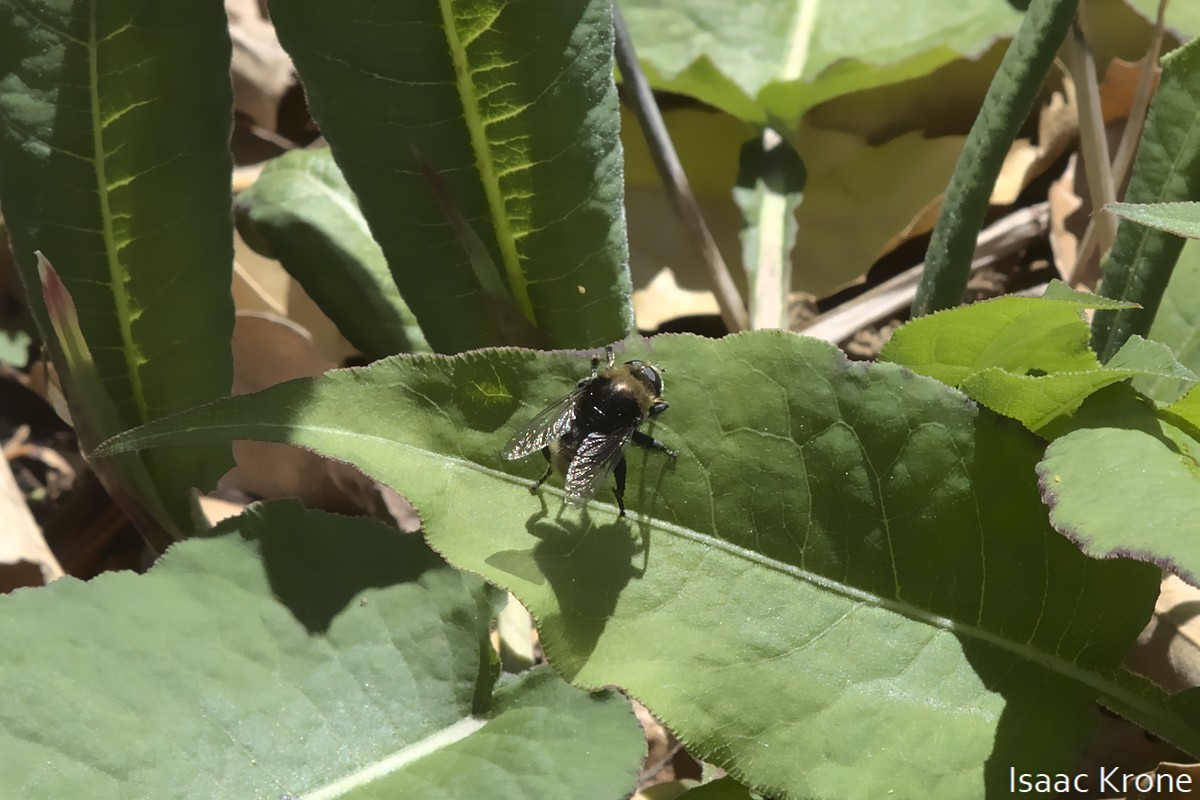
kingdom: Animalia
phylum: Arthropoda
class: Insecta
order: Diptera
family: Syrphidae
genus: Merodon
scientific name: Merodon equestris
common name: Greater bulb-fly
